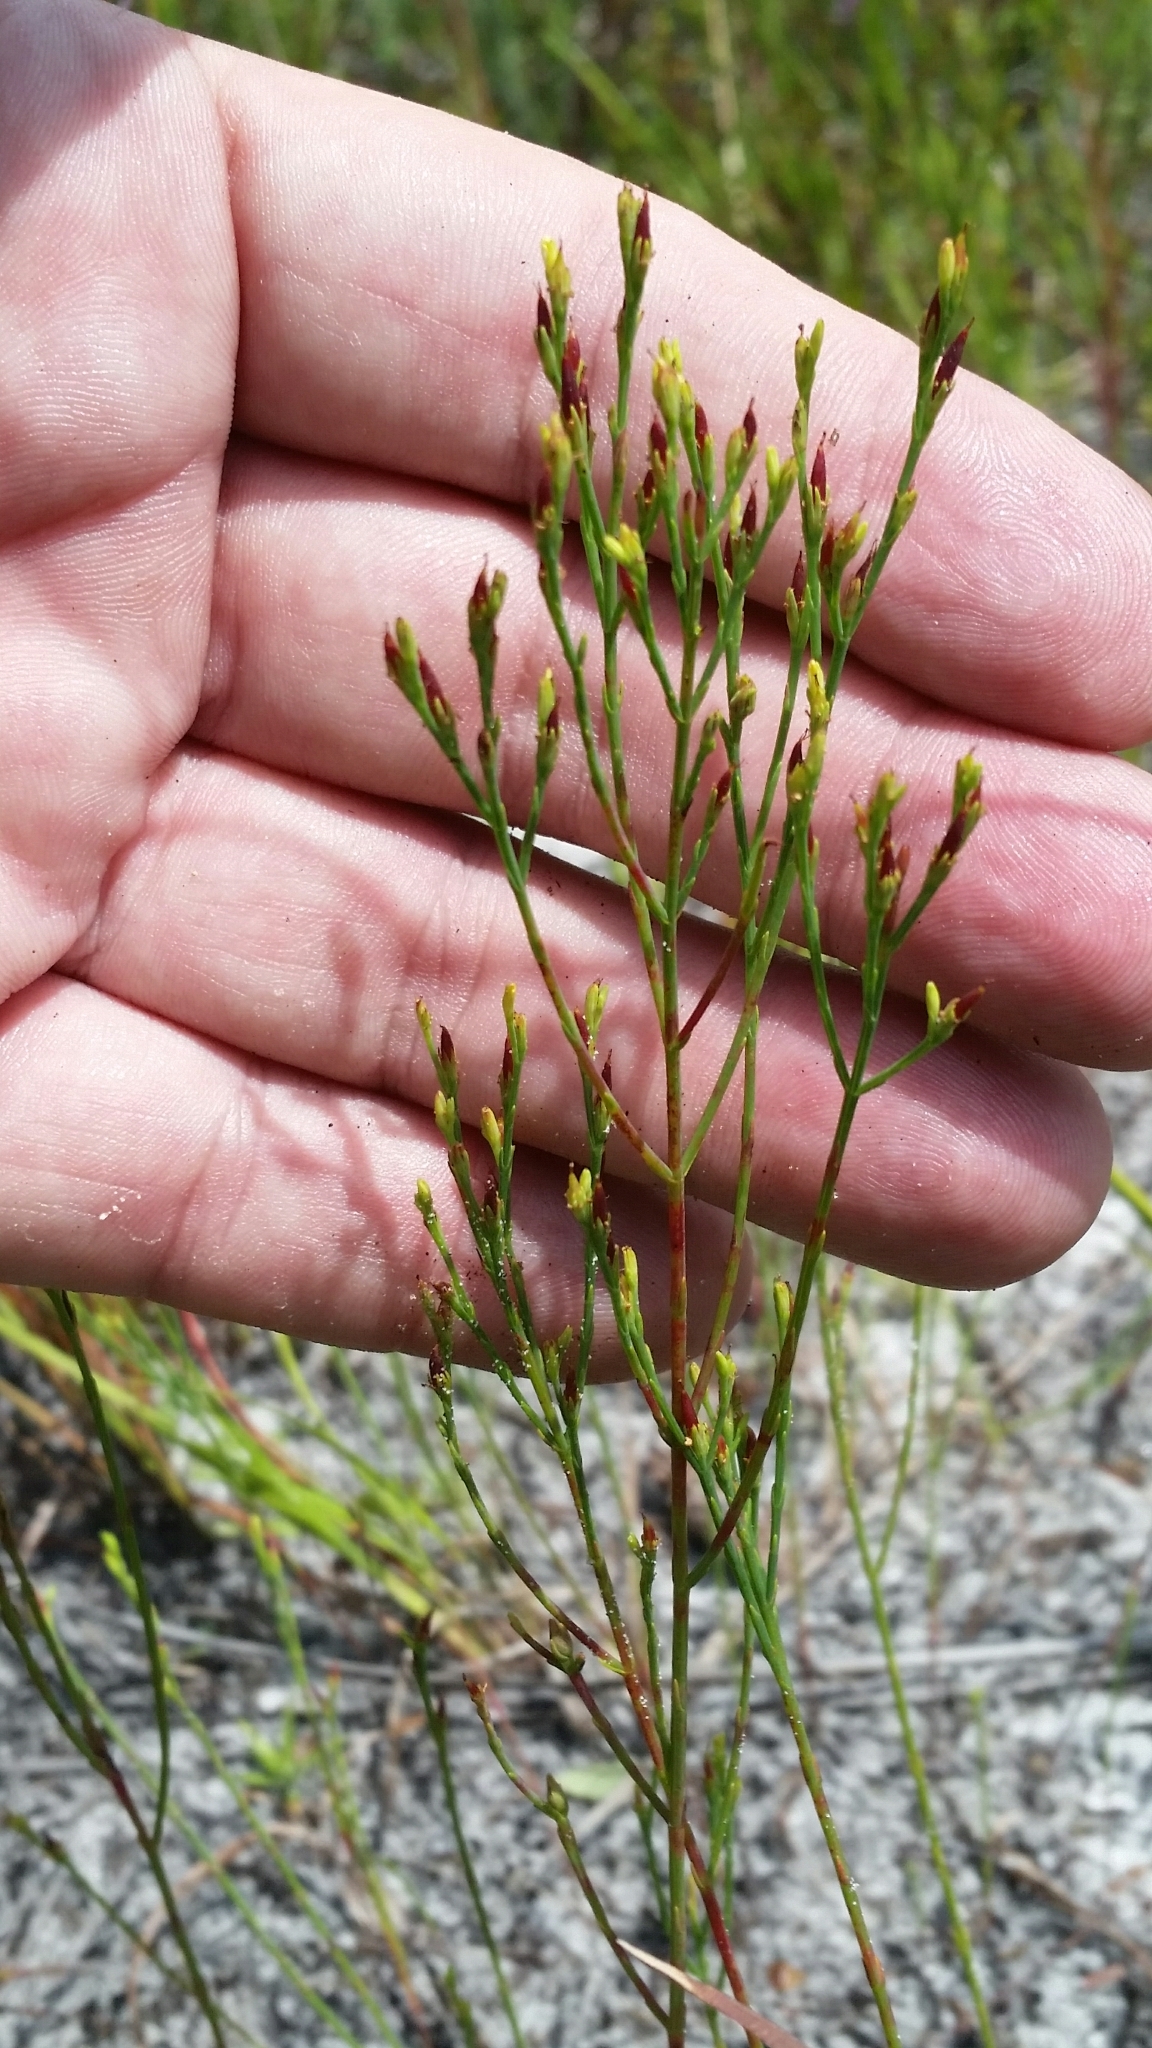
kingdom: Plantae
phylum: Tracheophyta
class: Magnoliopsida
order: Malpighiales
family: Hypericaceae
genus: Hypericum
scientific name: Hypericum gentianoides
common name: Gentian-leaved st. john's-wort
